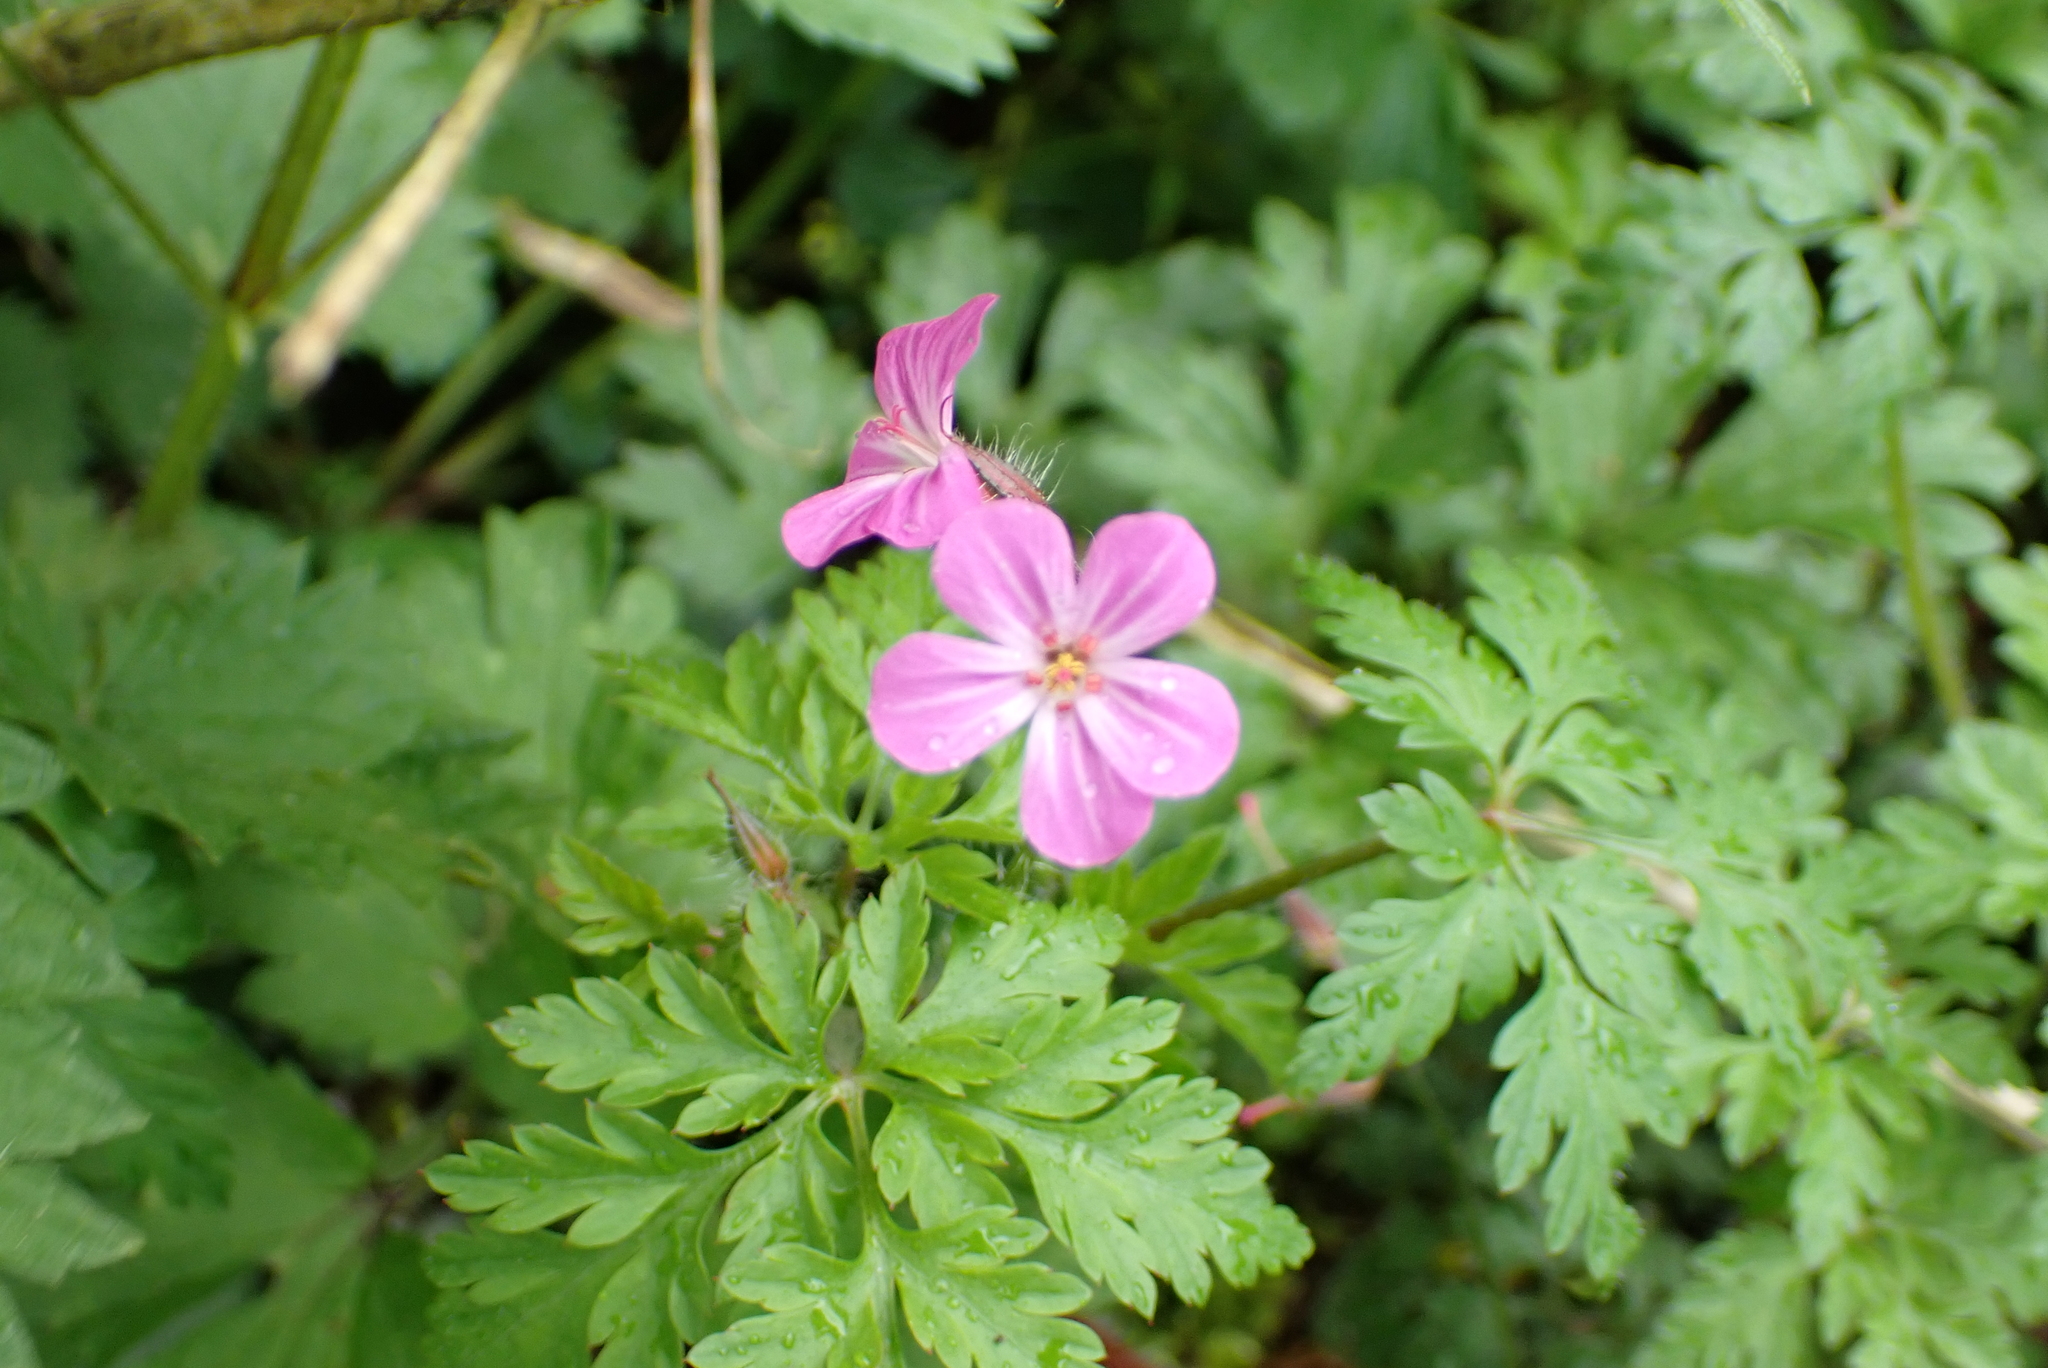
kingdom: Plantae
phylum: Tracheophyta
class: Magnoliopsida
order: Geraniales
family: Geraniaceae
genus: Geranium
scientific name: Geranium robertianum
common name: Herb-robert
